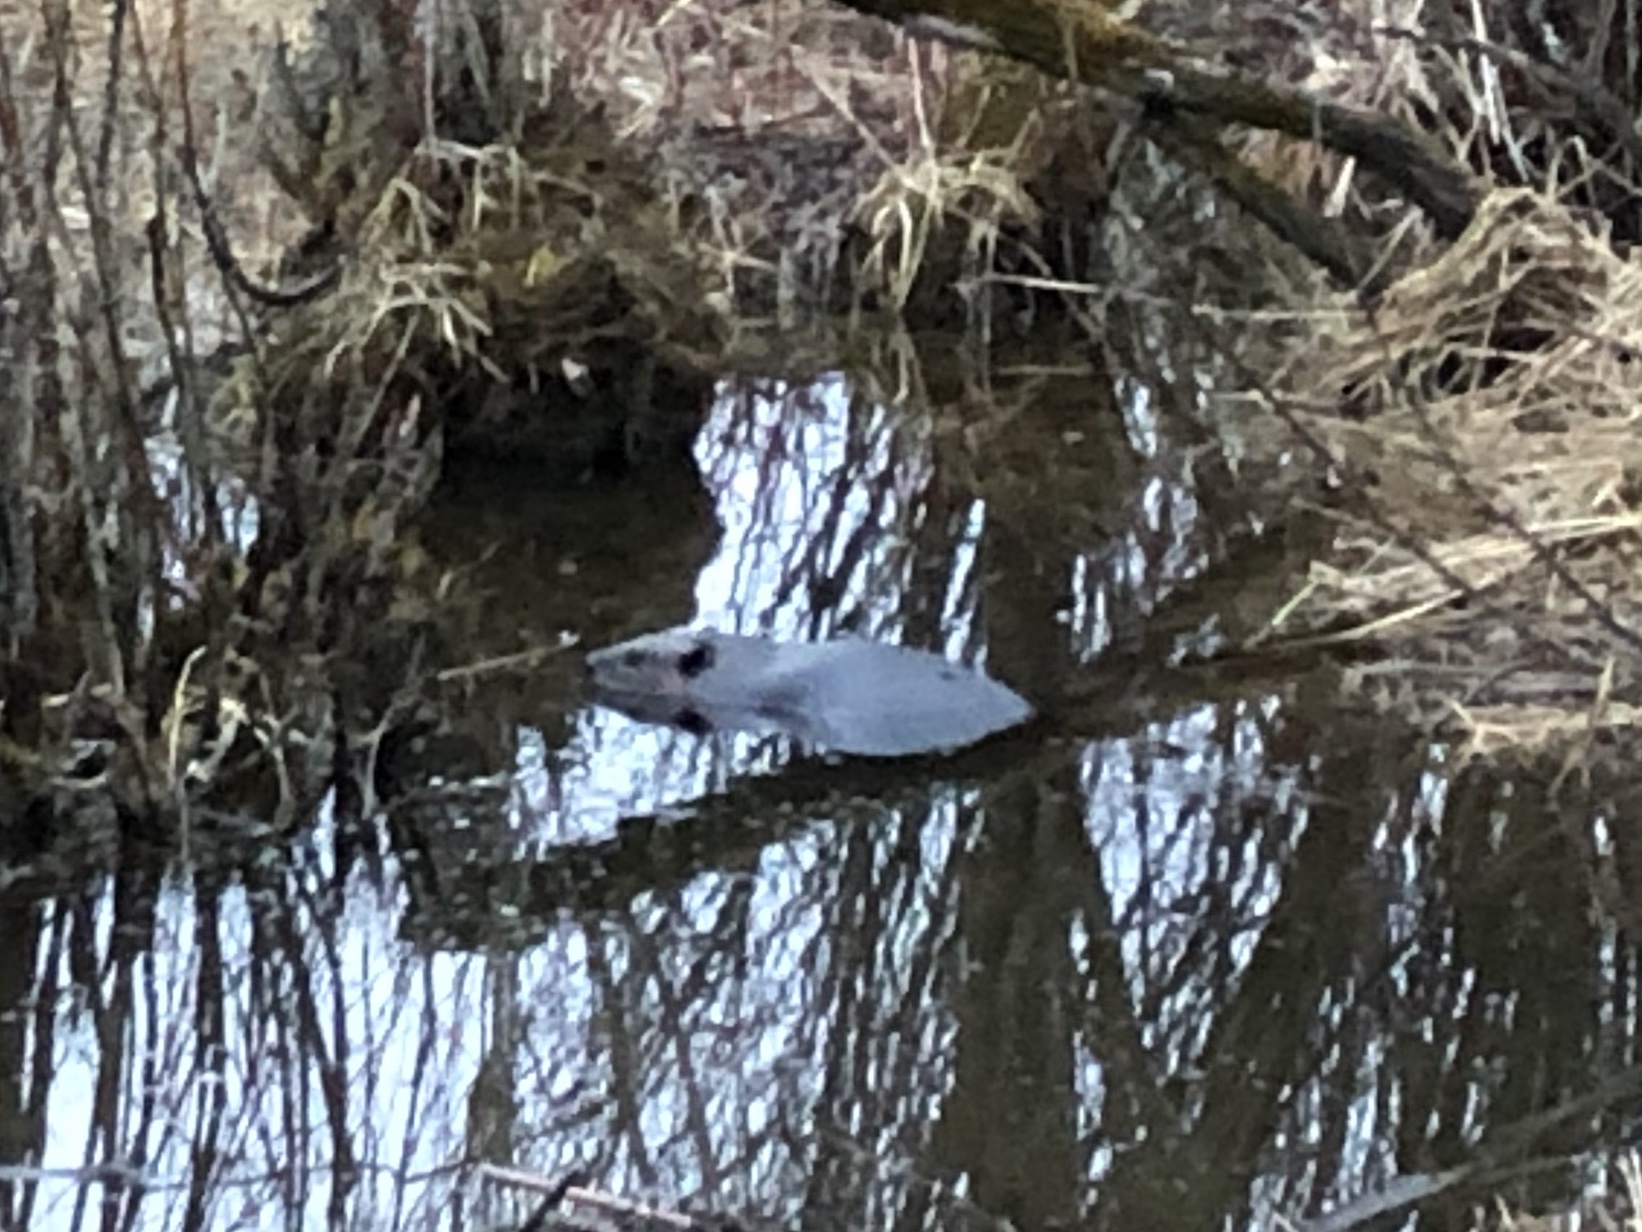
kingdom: Animalia
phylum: Chordata
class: Mammalia
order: Rodentia
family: Castoridae
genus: Castor
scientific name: Castor canadensis
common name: American beaver
